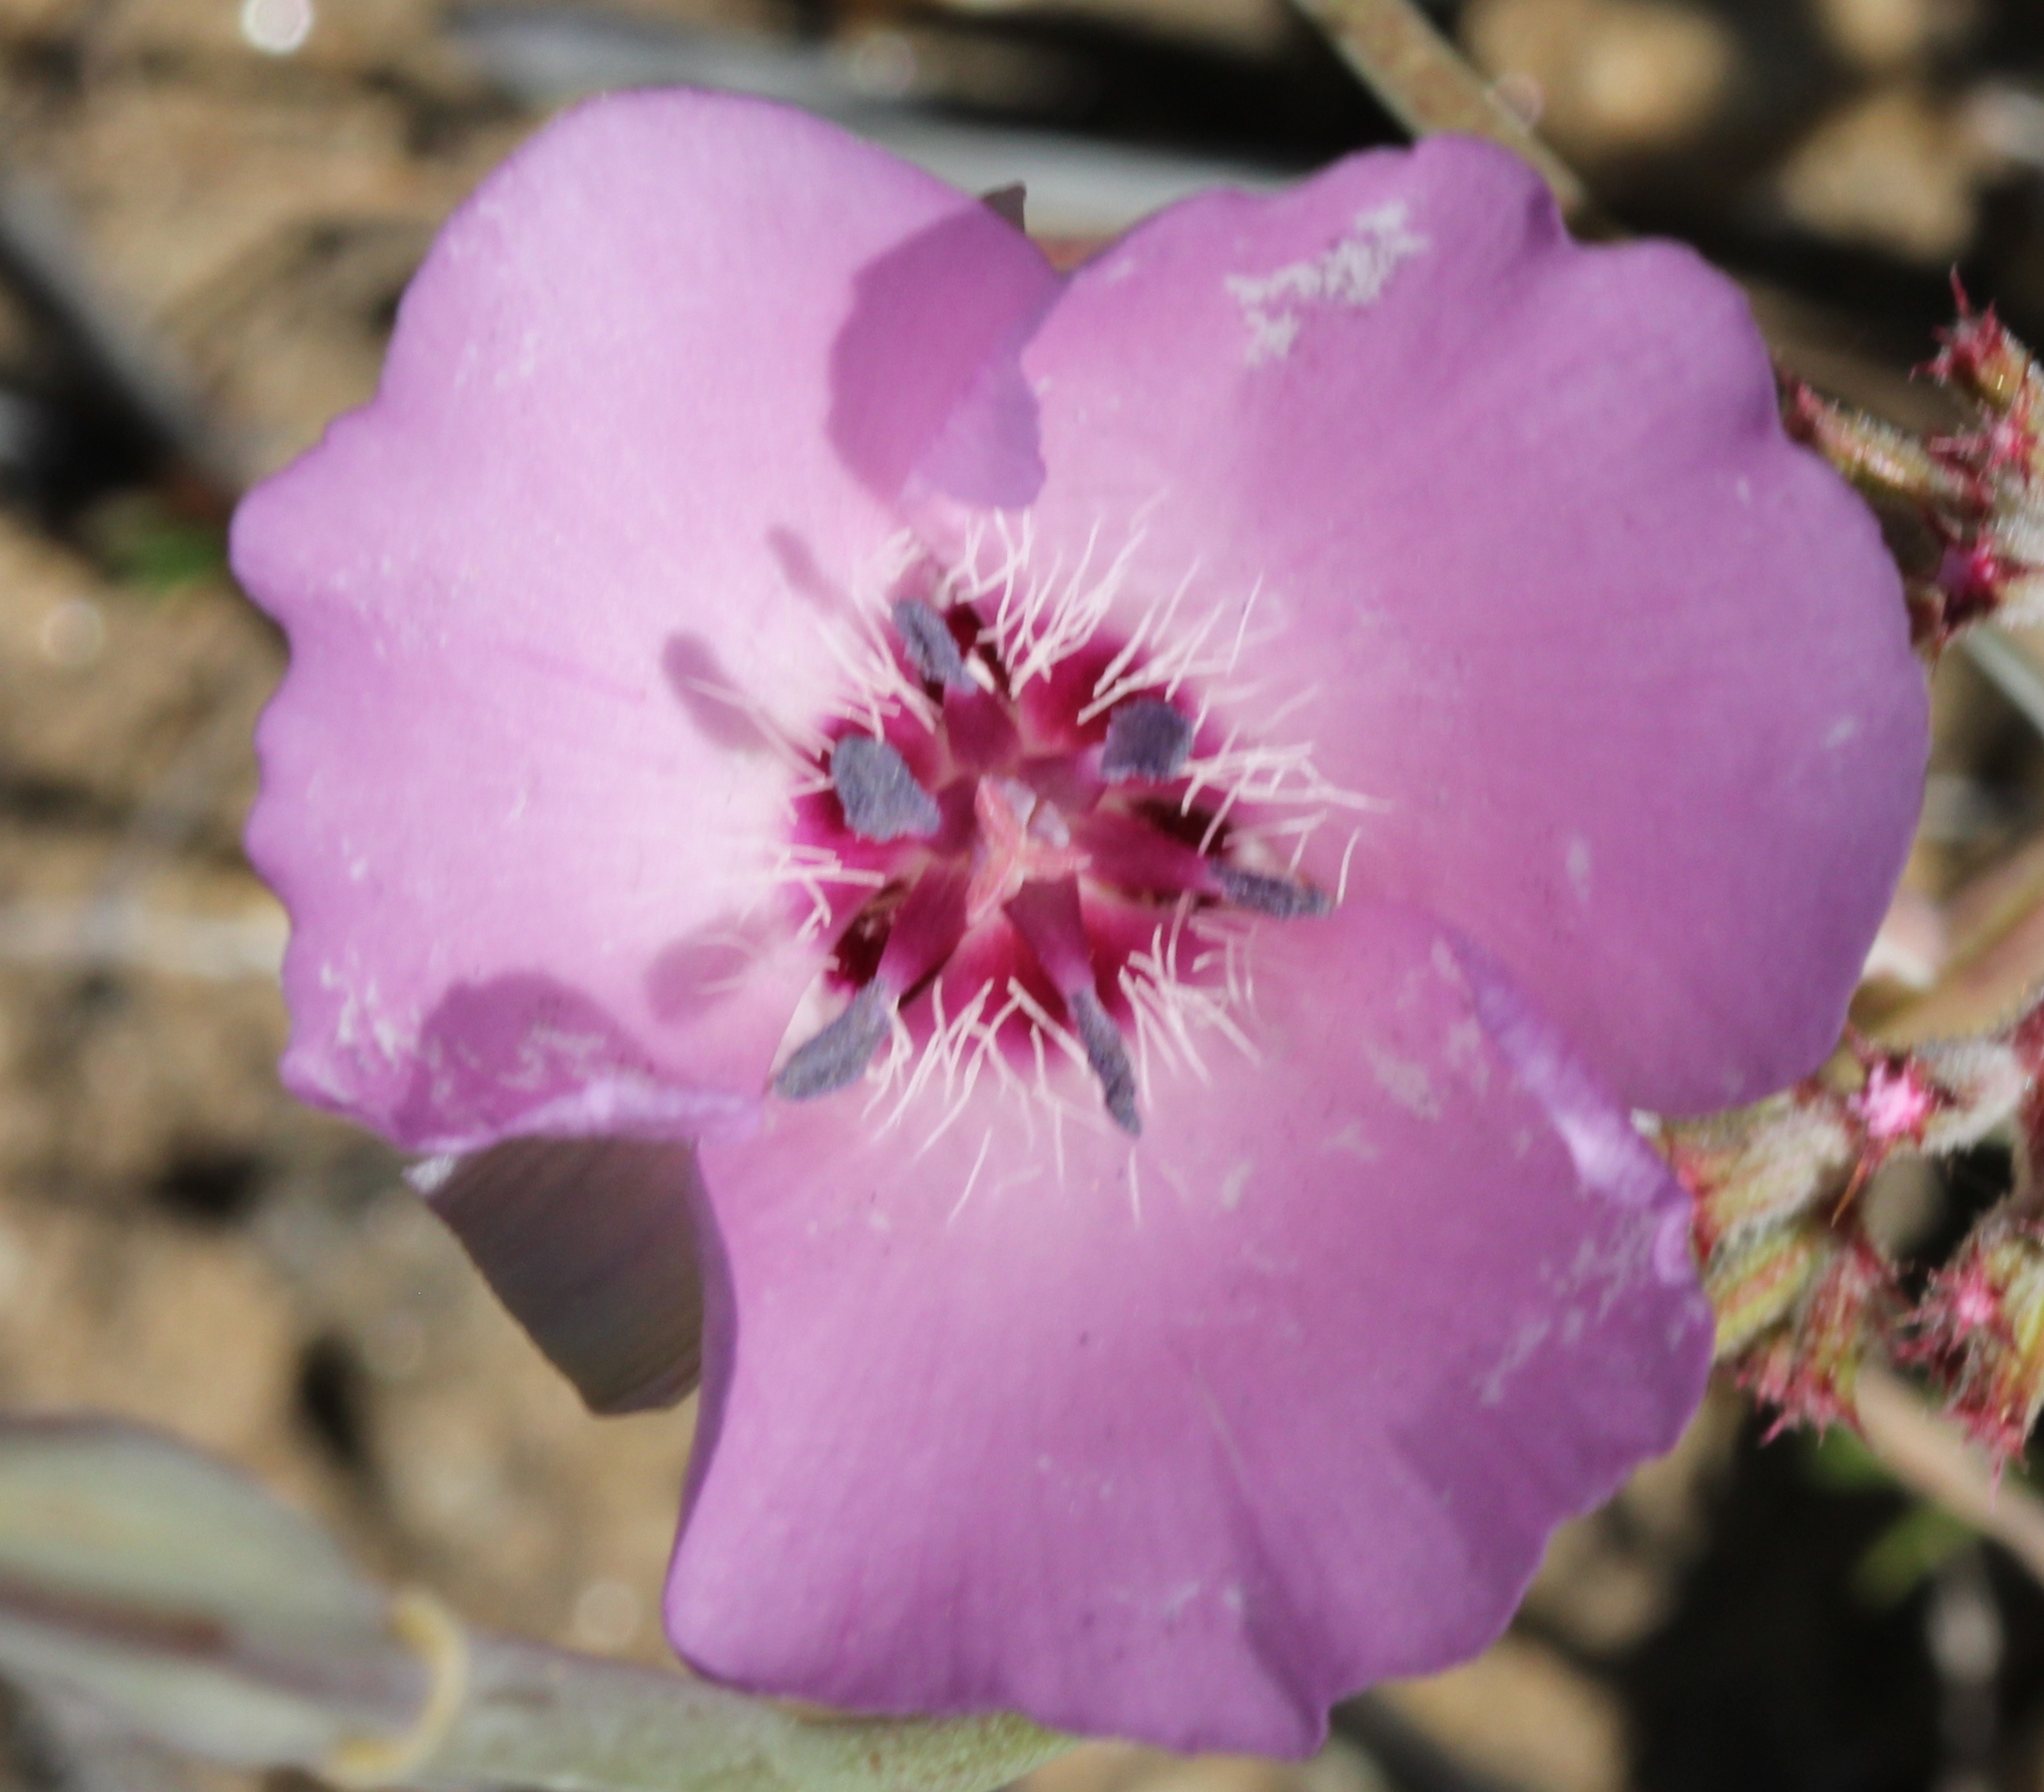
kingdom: Plantae
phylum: Tracheophyta
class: Liliopsida
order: Liliales
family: Liliaceae
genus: Calochortus
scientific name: Calochortus splendens
